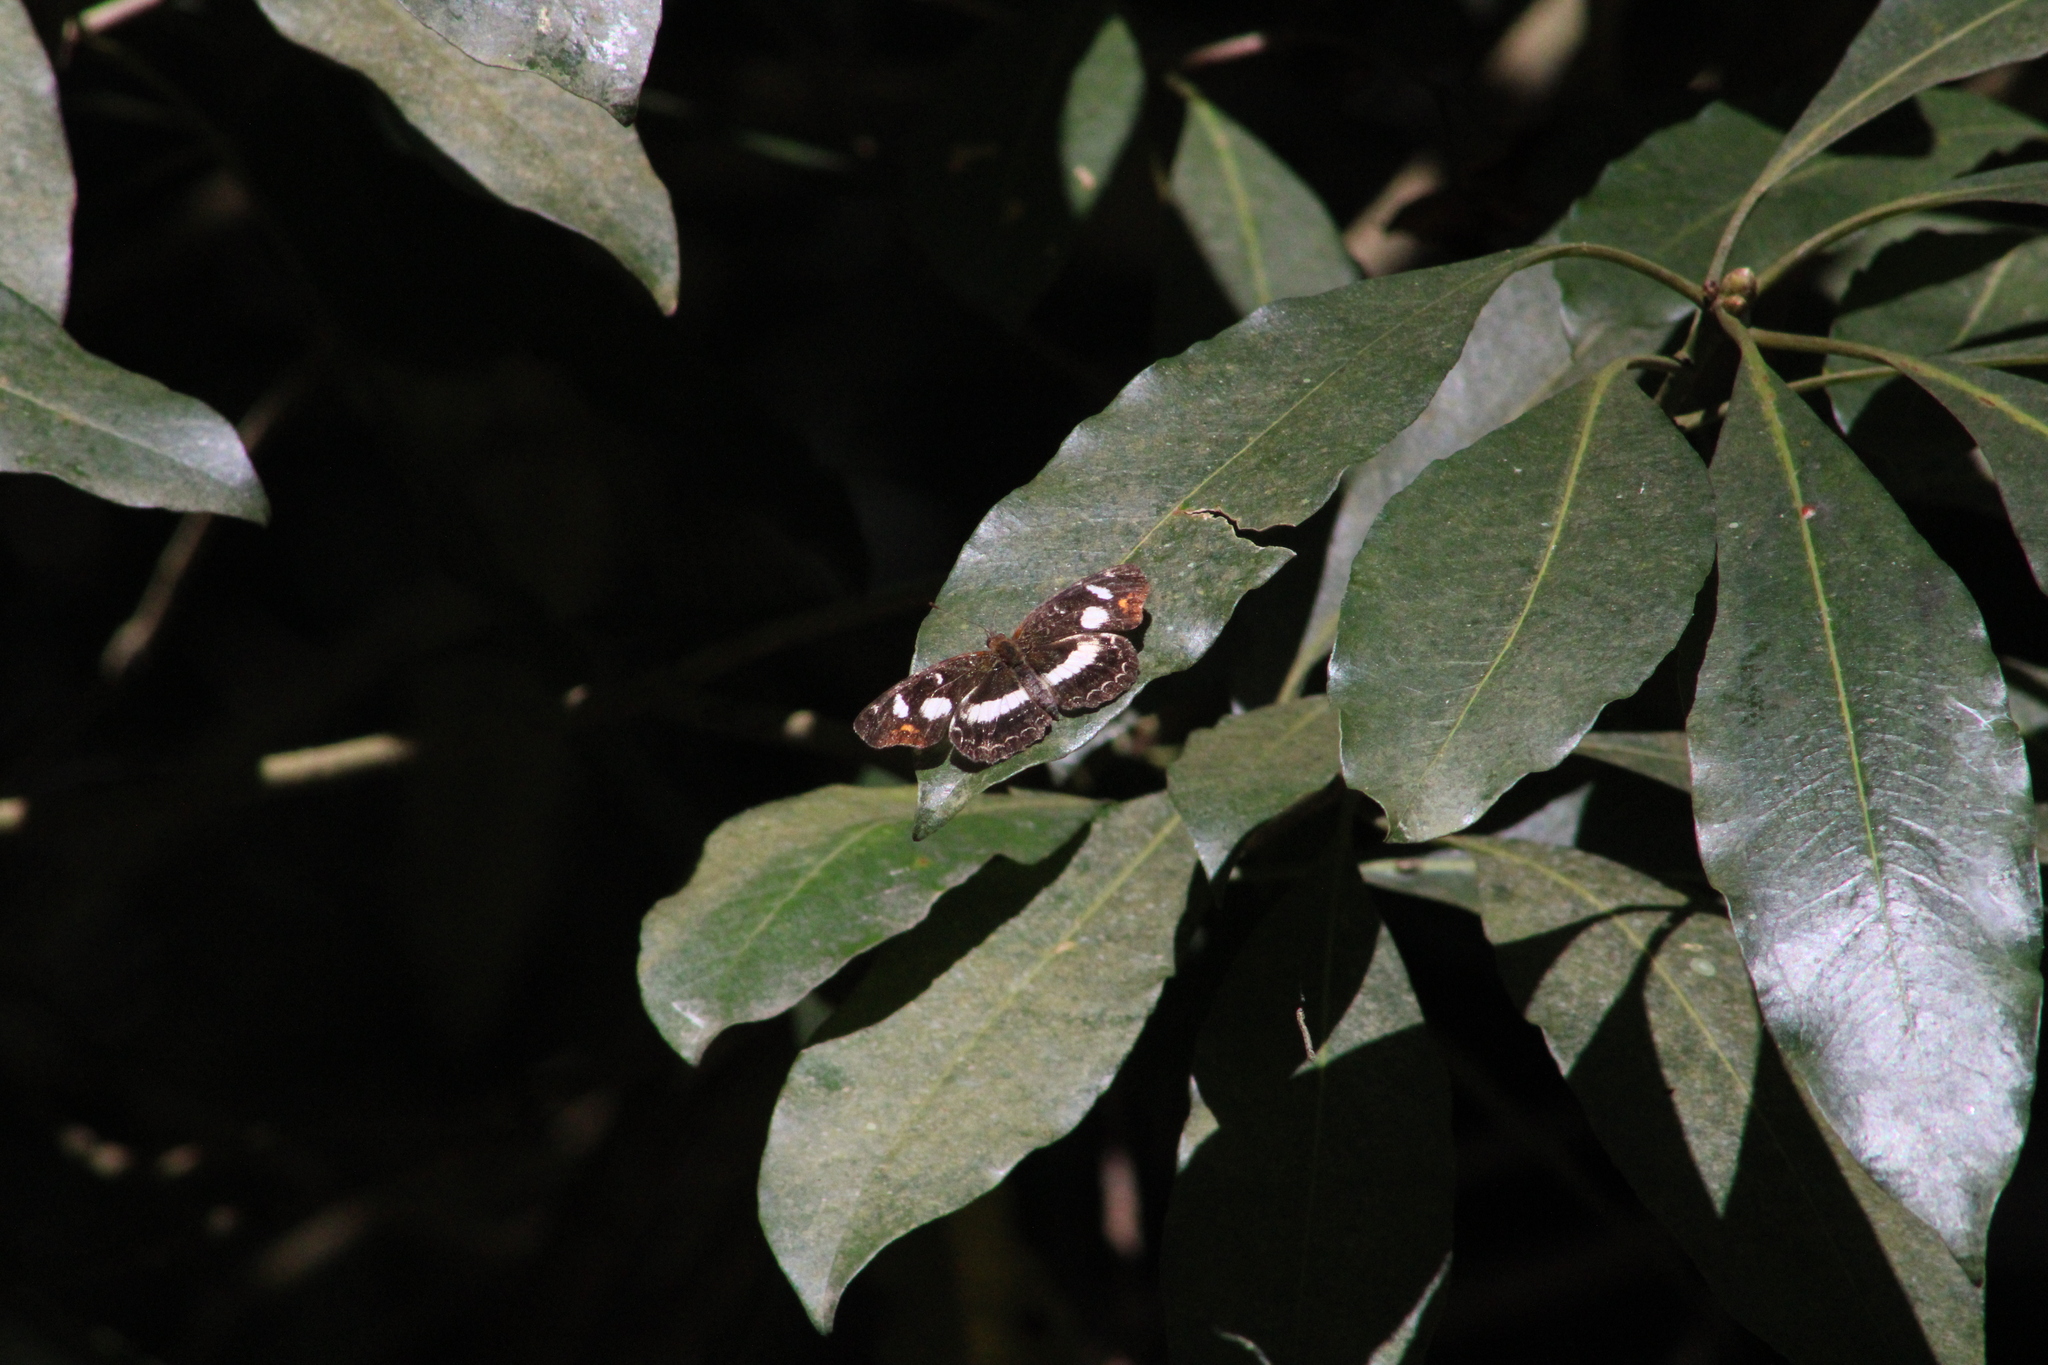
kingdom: Animalia
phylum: Arthropoda
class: Insecta
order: Lepidoptera
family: Nymphalidae
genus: Ortilia
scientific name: Ortilia orticas
